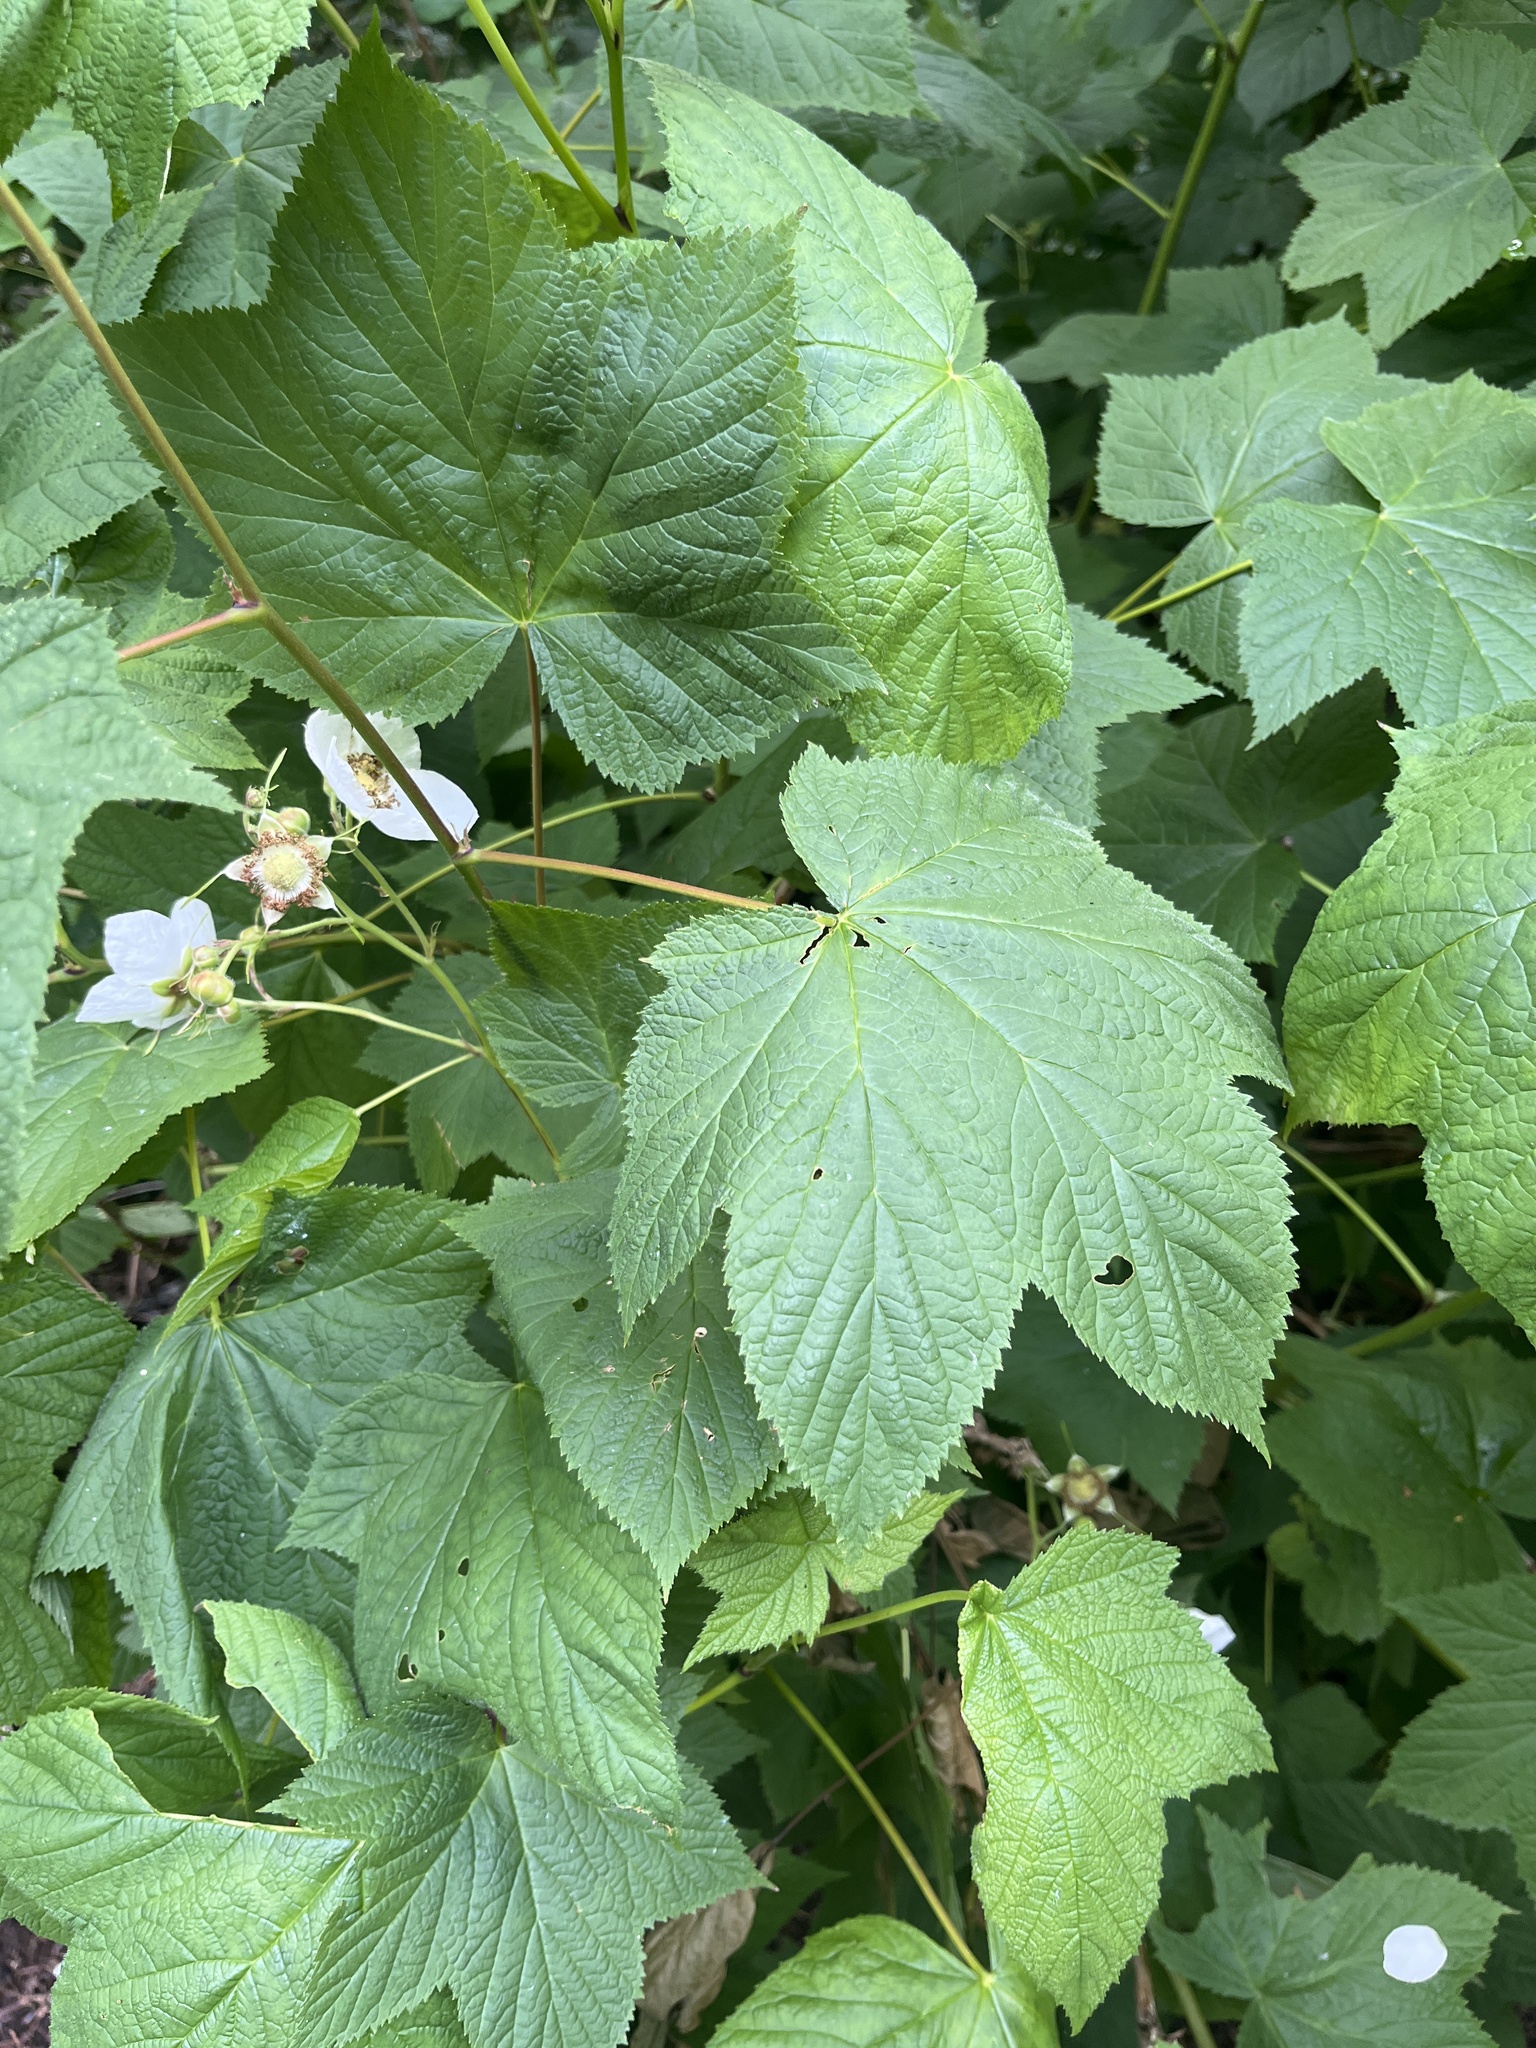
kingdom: Plantae
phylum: Tracheophyta
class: Magnoliopsida
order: Rosales
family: Rosaceae
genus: Rubus
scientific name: Rubus parviflorus
